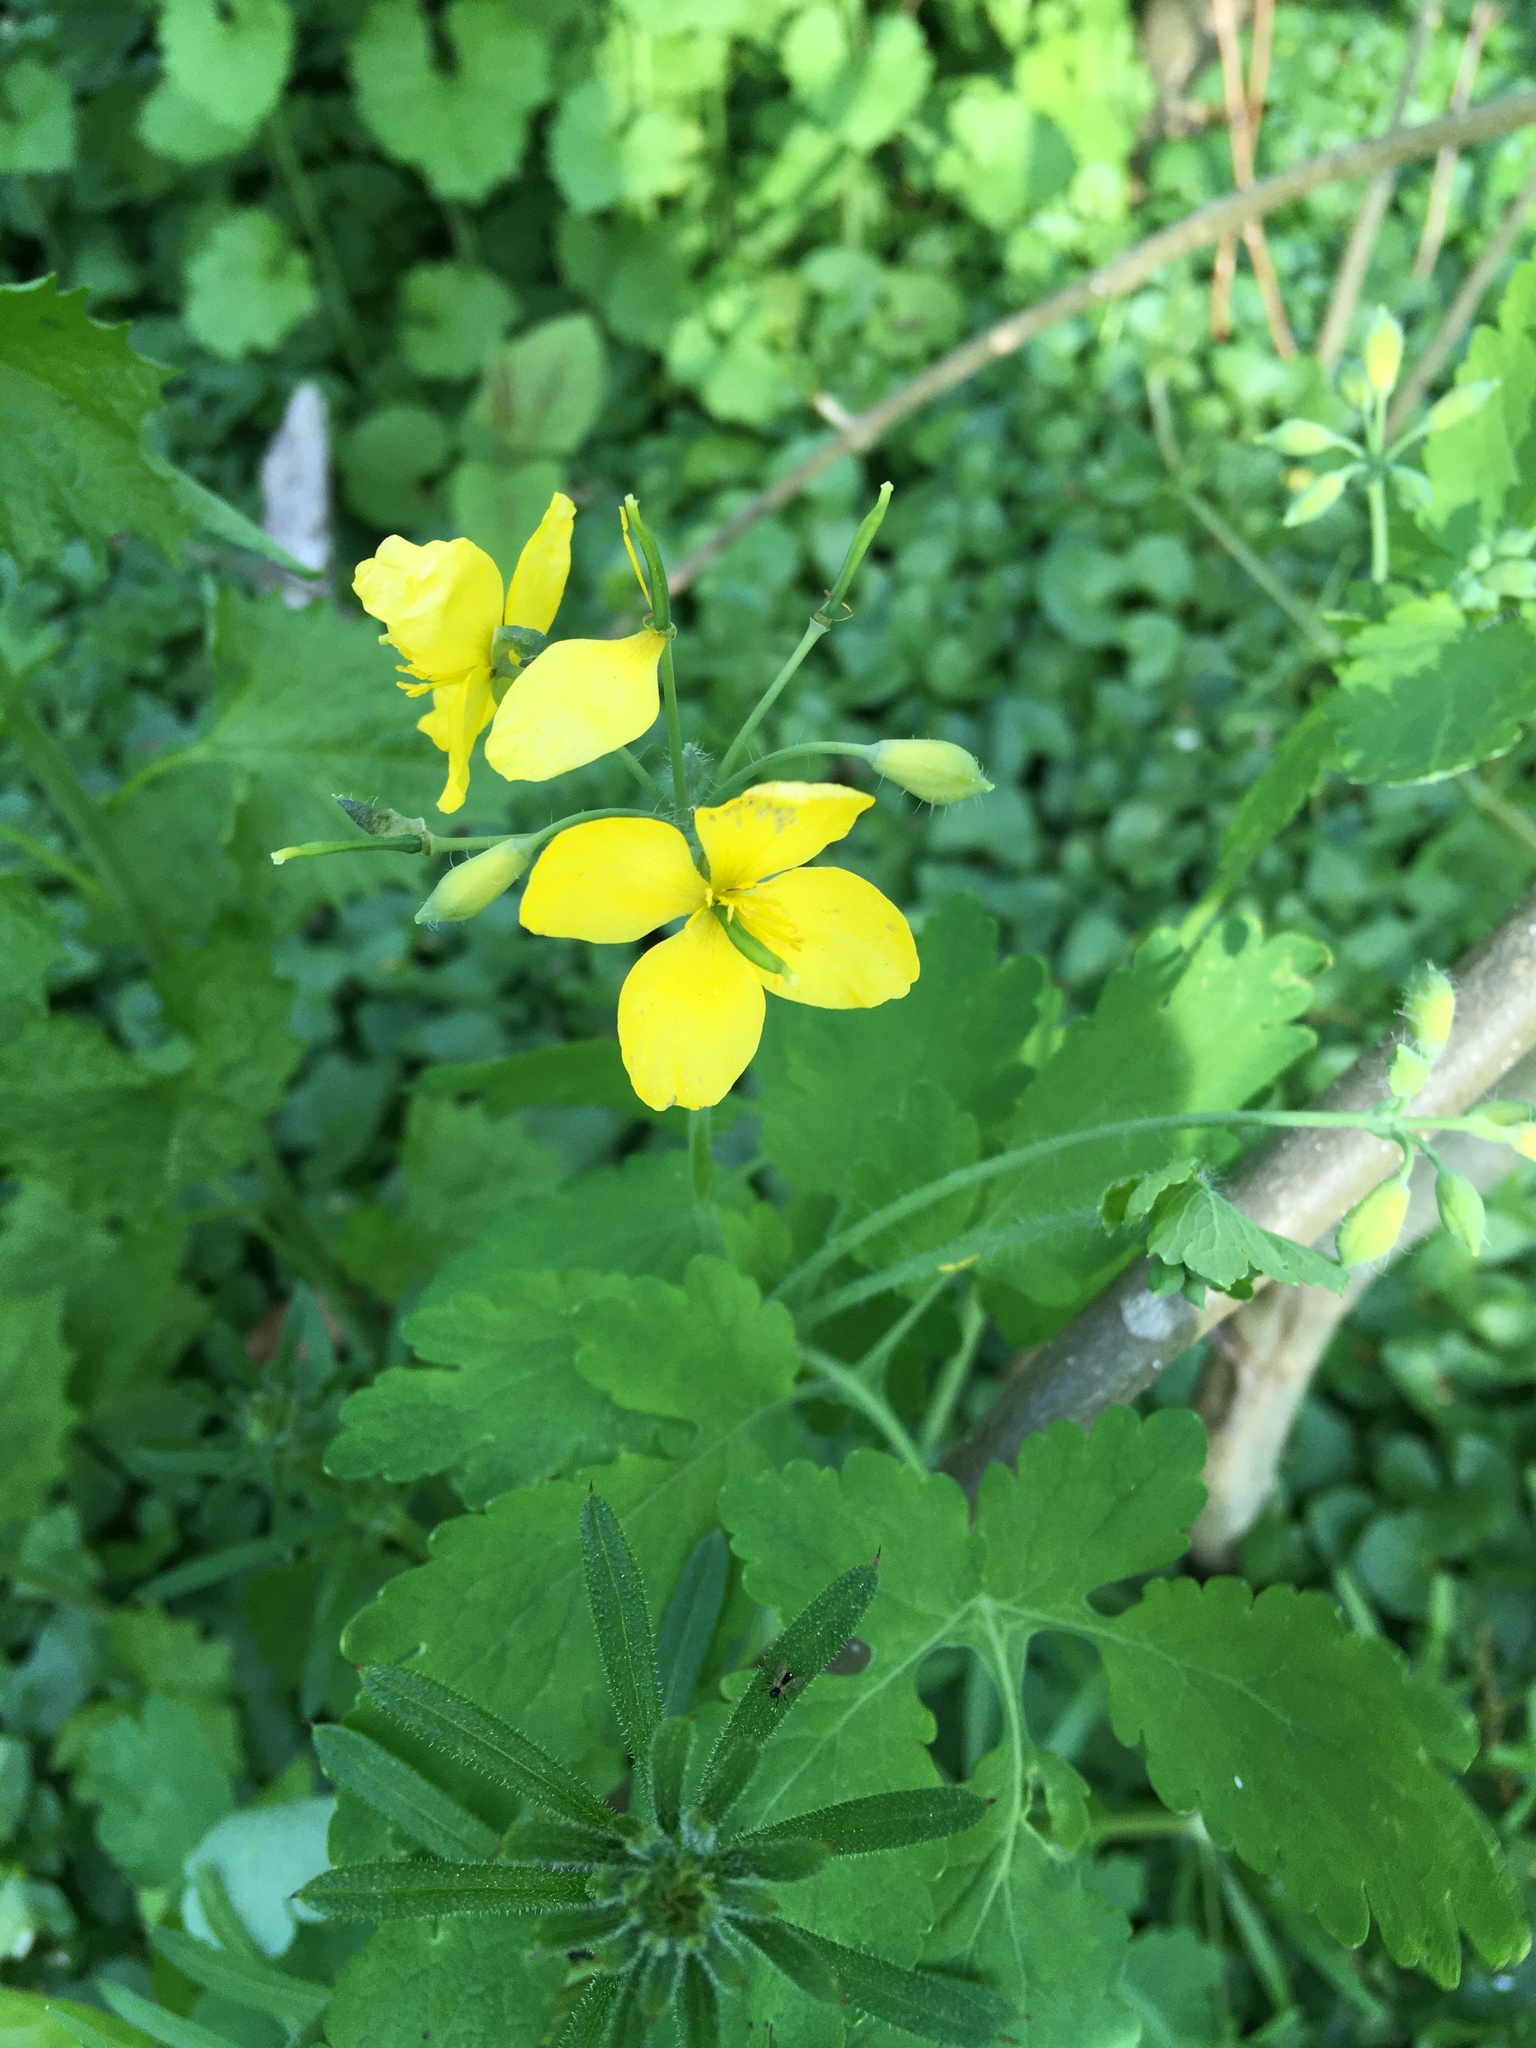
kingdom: Plantae
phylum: Tracheophyta
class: Magnoliopsida
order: Ranunculales
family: Papaveraceae
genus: Chelidonium
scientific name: Chelidonium majus
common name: Greater celandine
